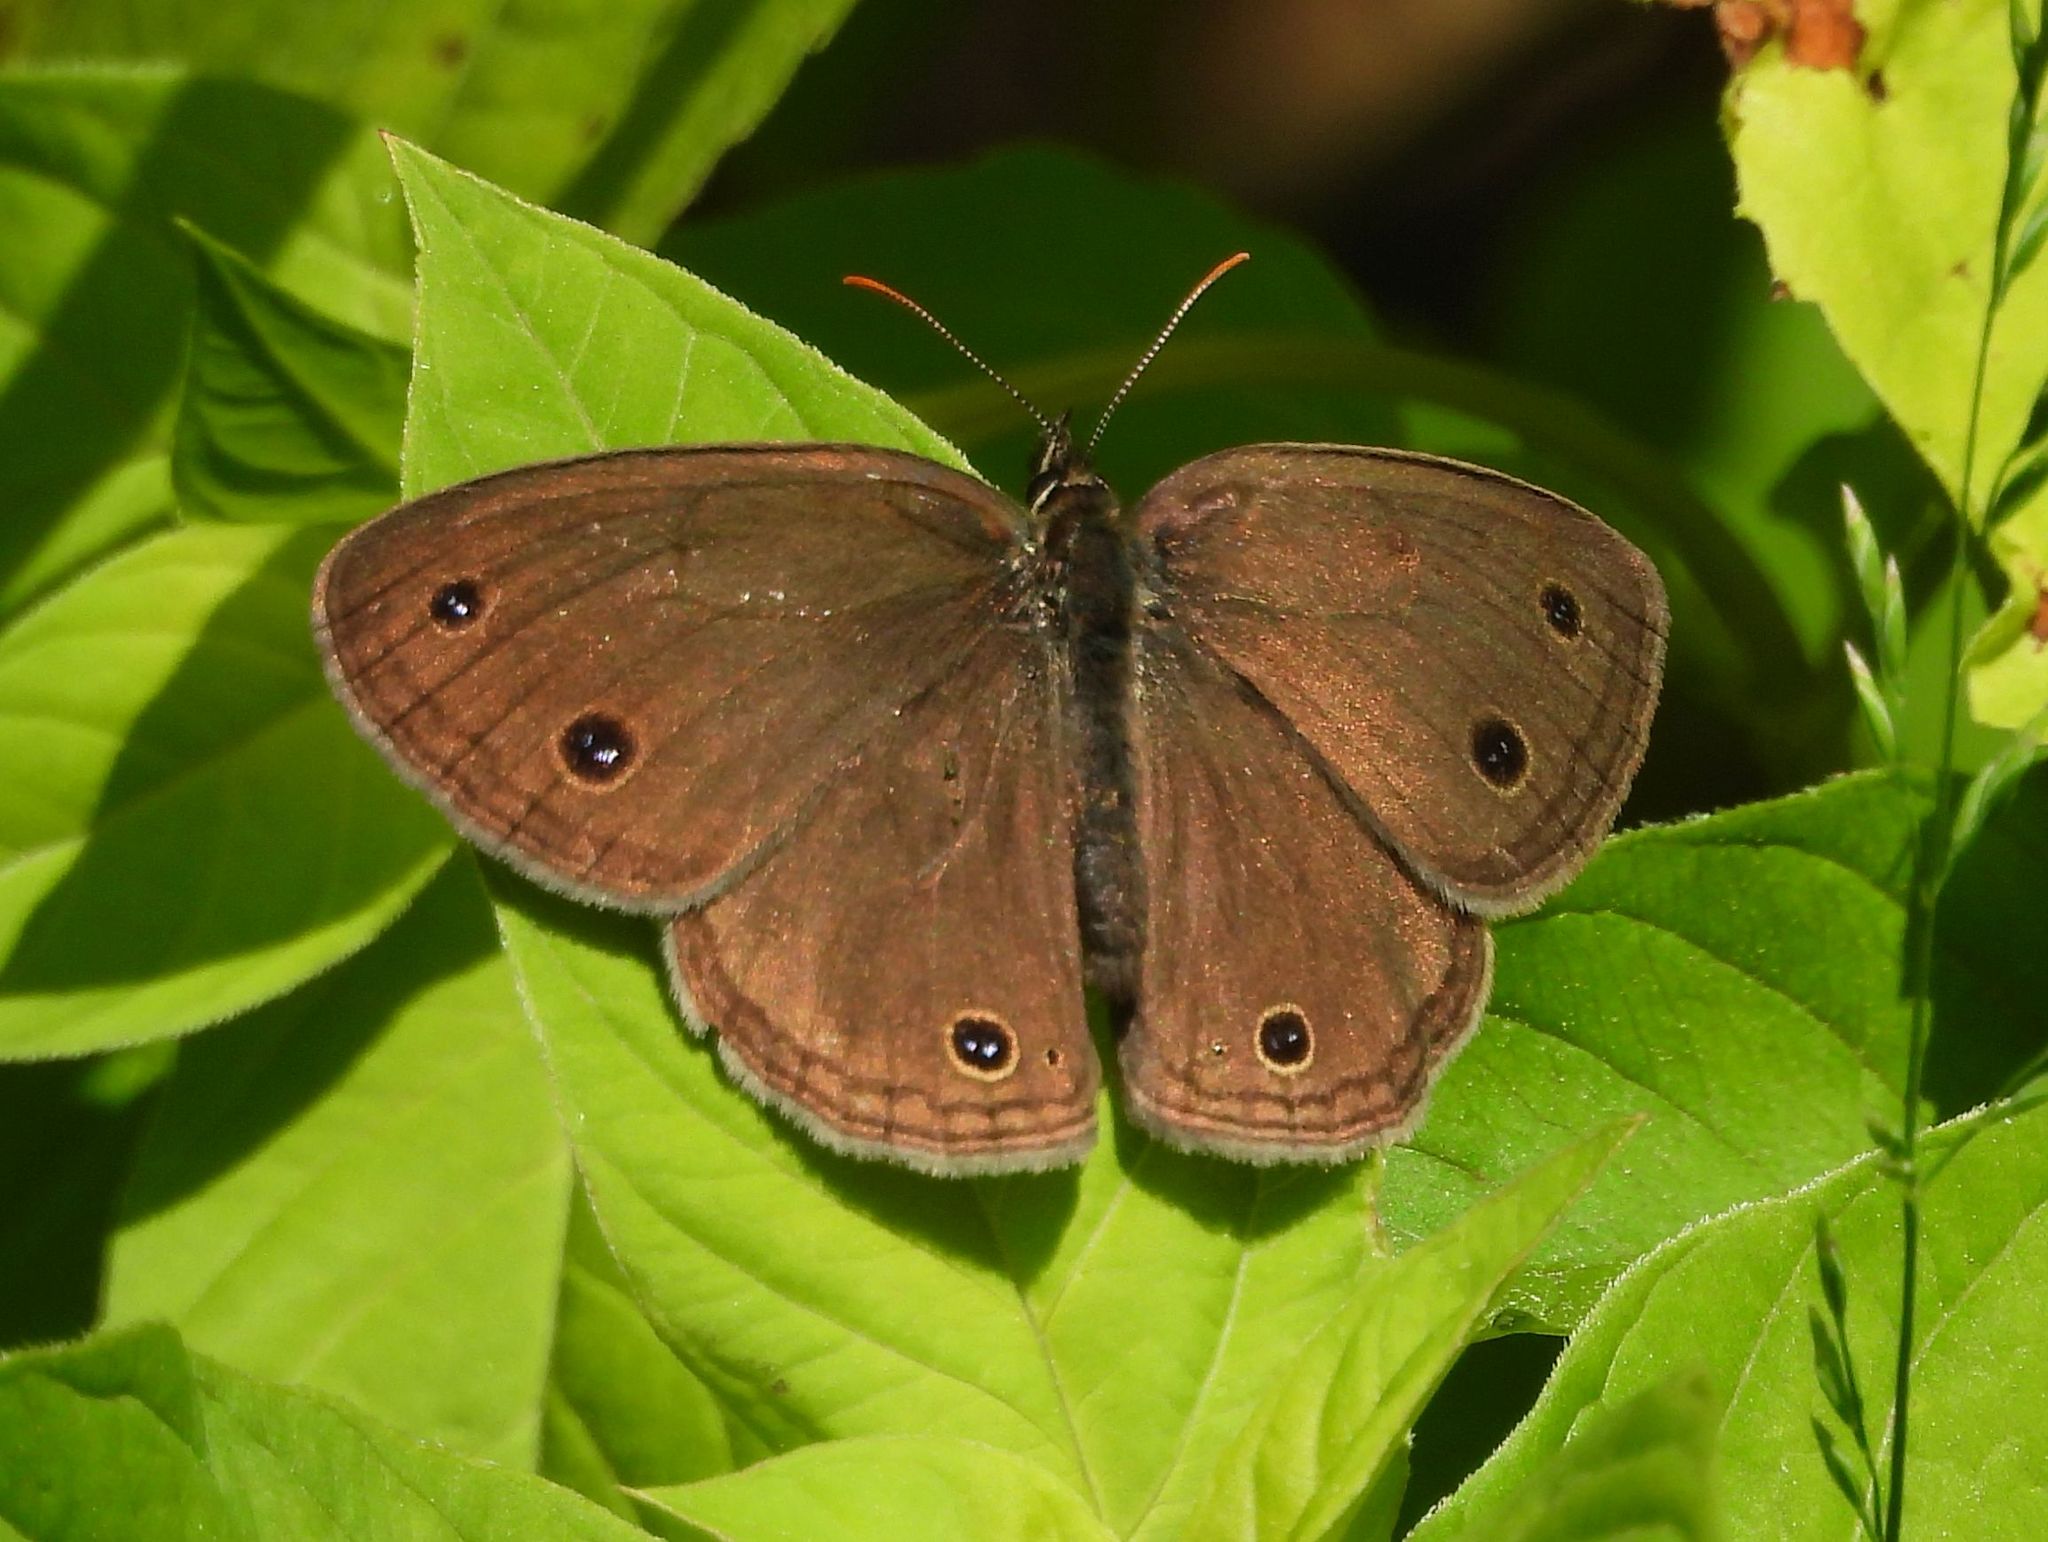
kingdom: Animalia
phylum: Arthropoda
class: Insecta
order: Lepidoptera
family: Nymphalidae
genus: Euptychia
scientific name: Euptychia cymela
